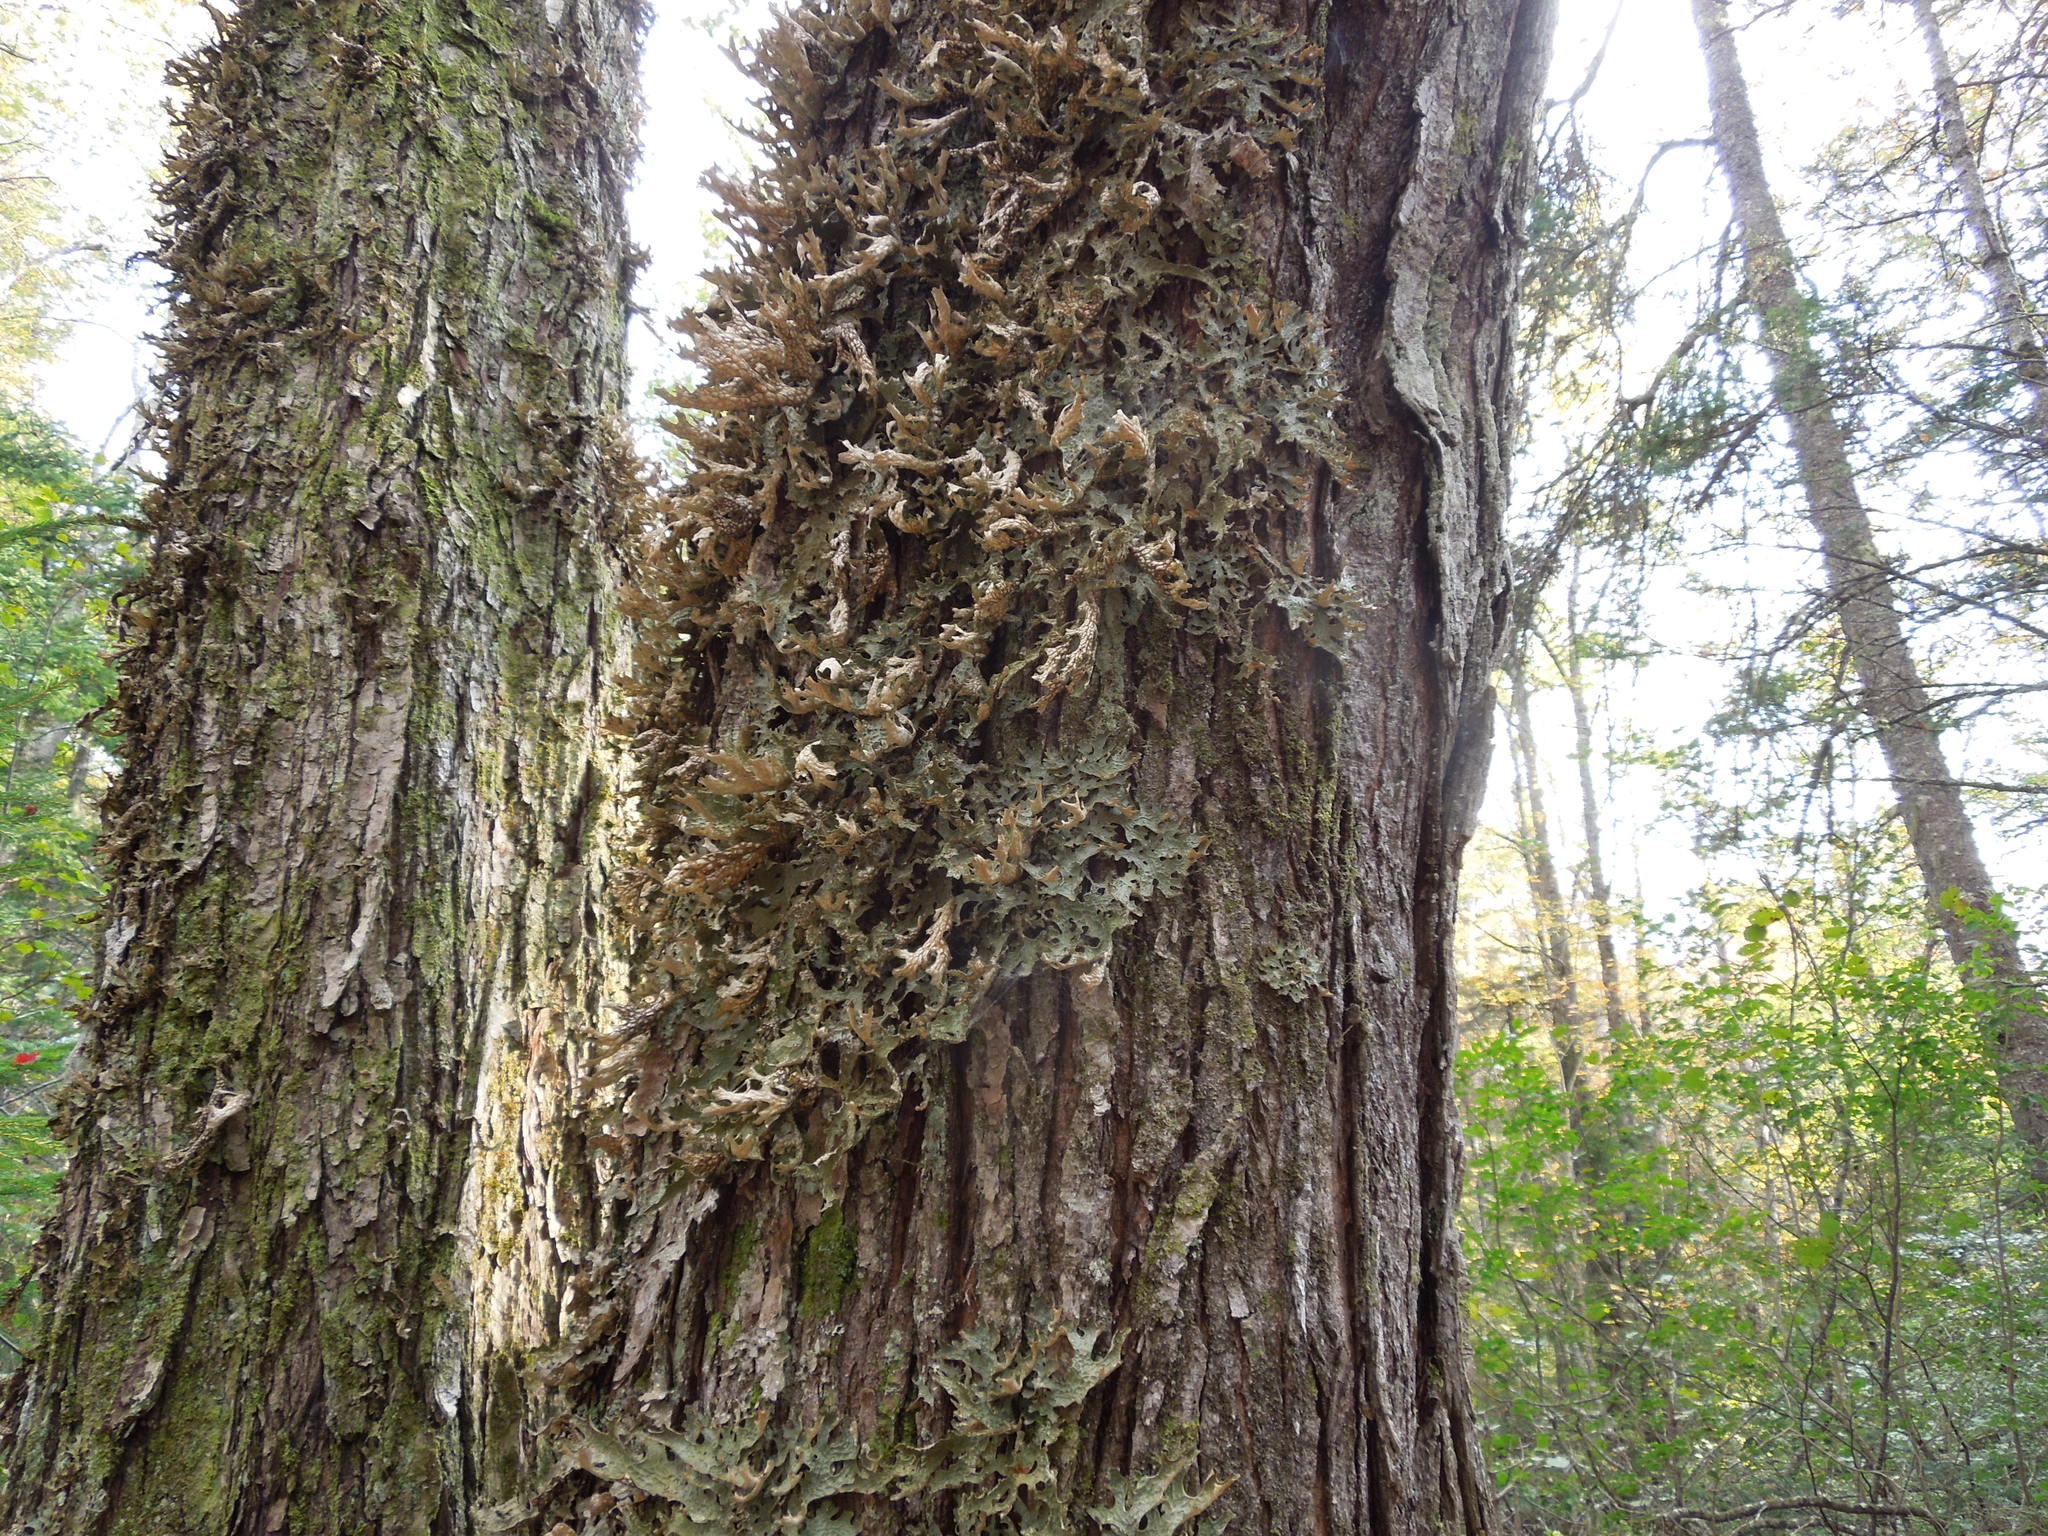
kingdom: Fungi
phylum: Ascomycota
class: Lecanoromycetes
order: Peltigerales
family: Lobariaceae
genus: Lobaria
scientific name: Lobaria pulmonaria
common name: Lungwort
